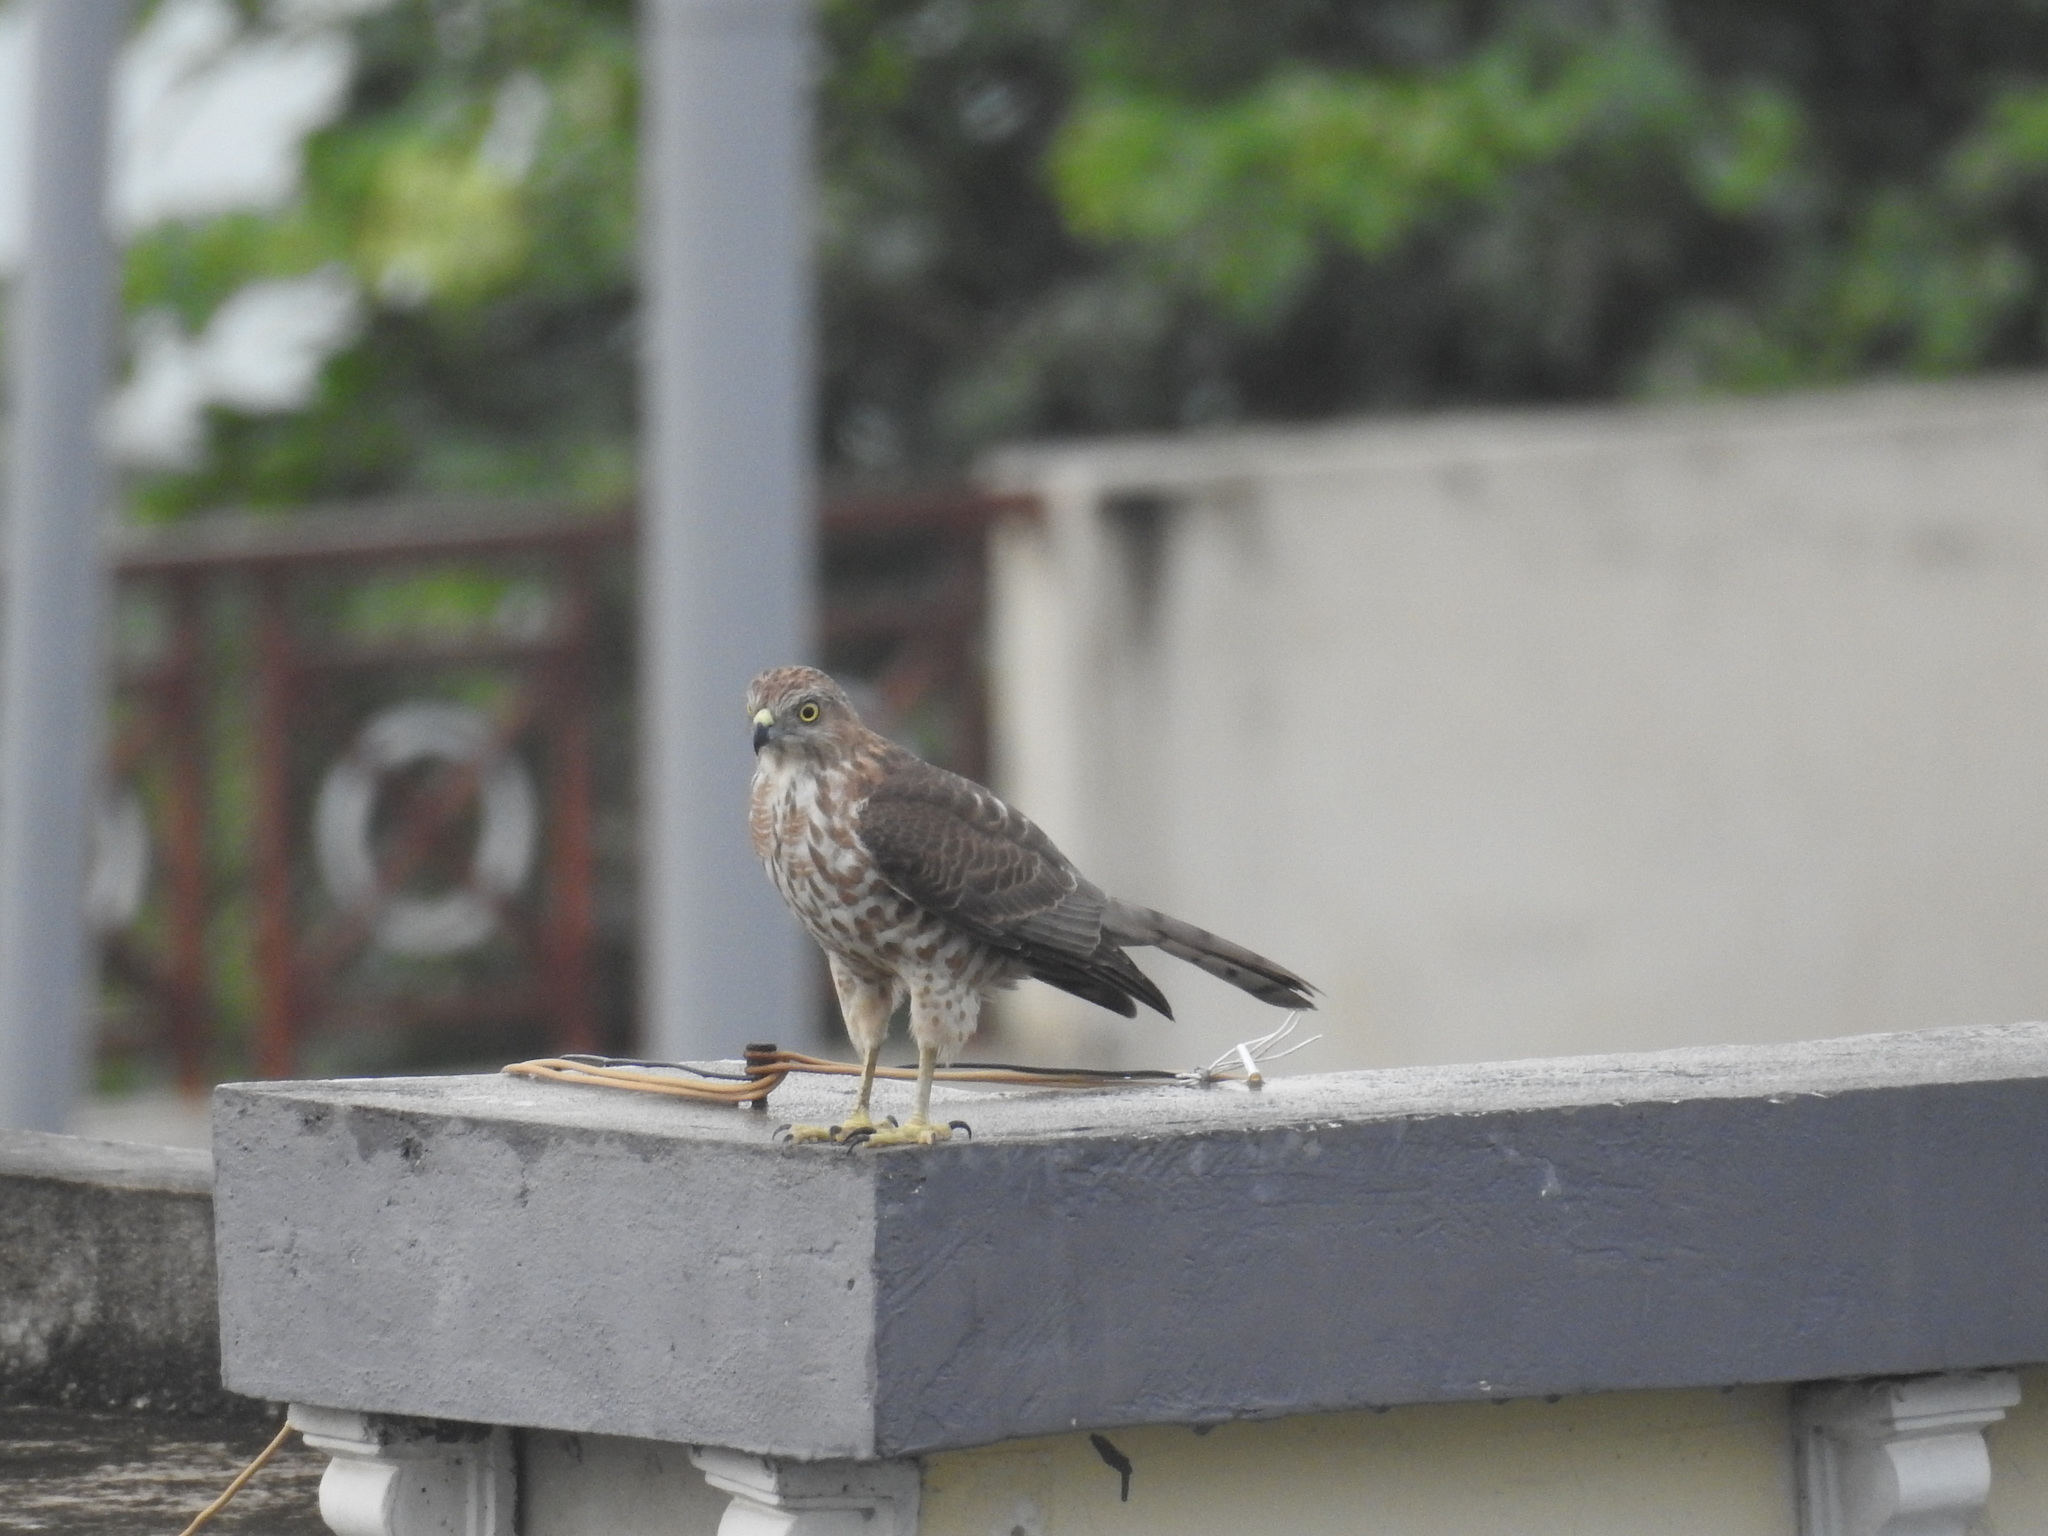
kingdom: Animalia
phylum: Chordata
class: Aves
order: Accipitriformes
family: Accipitridae
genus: Accipiter
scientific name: Accipiter badius
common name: Shikra
